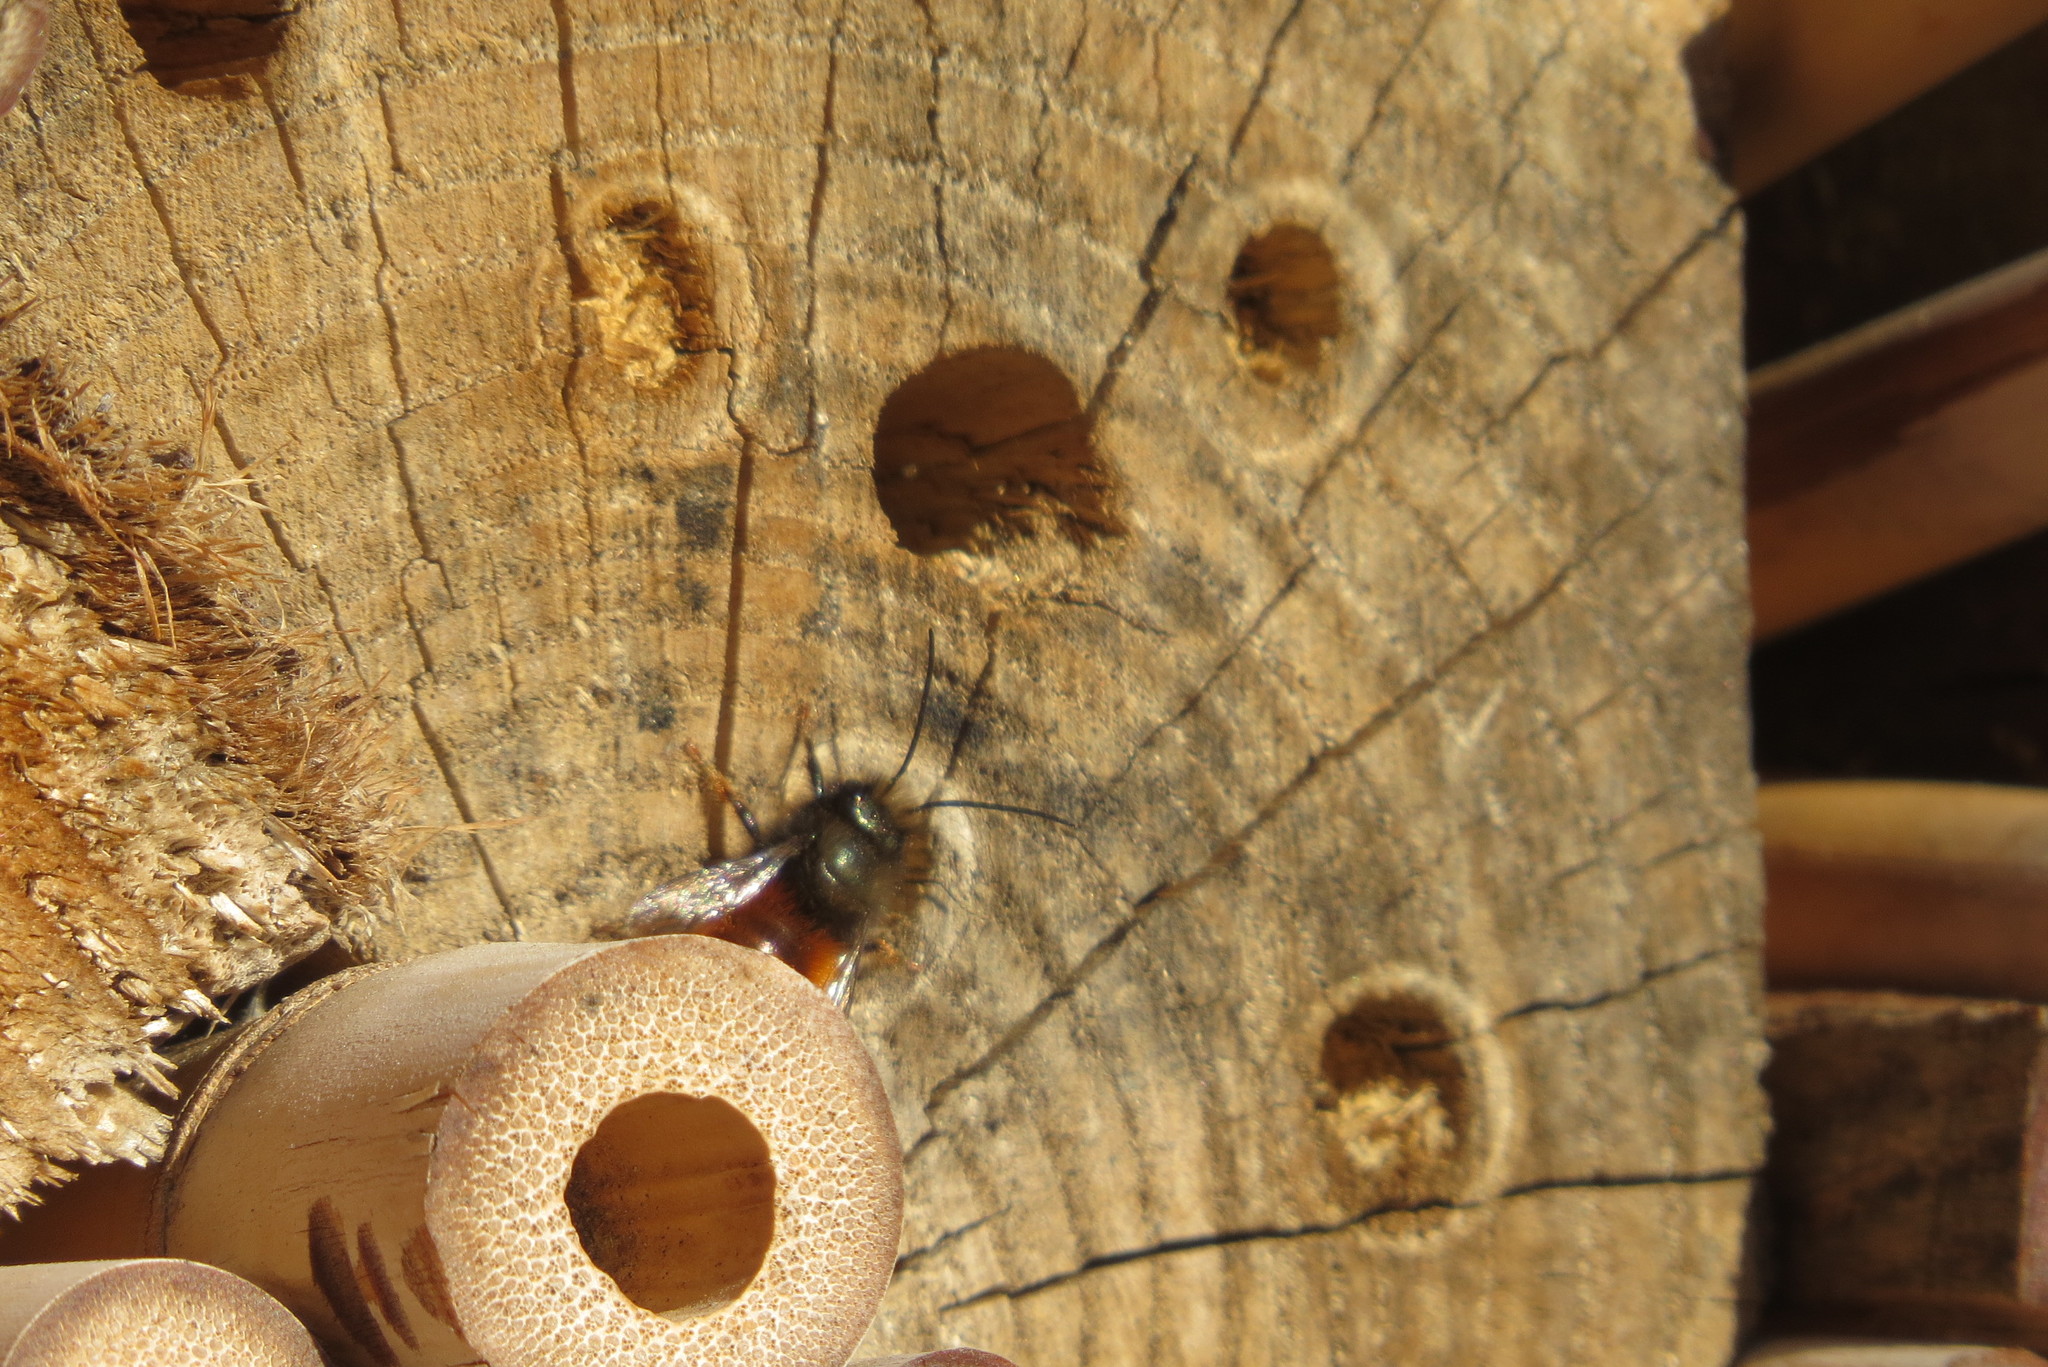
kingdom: Animalia
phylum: Arthropoda
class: Insecta
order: Hymenoptera
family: Megachilidae
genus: Osmia
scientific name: Osmia cornuta
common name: Mason bee
